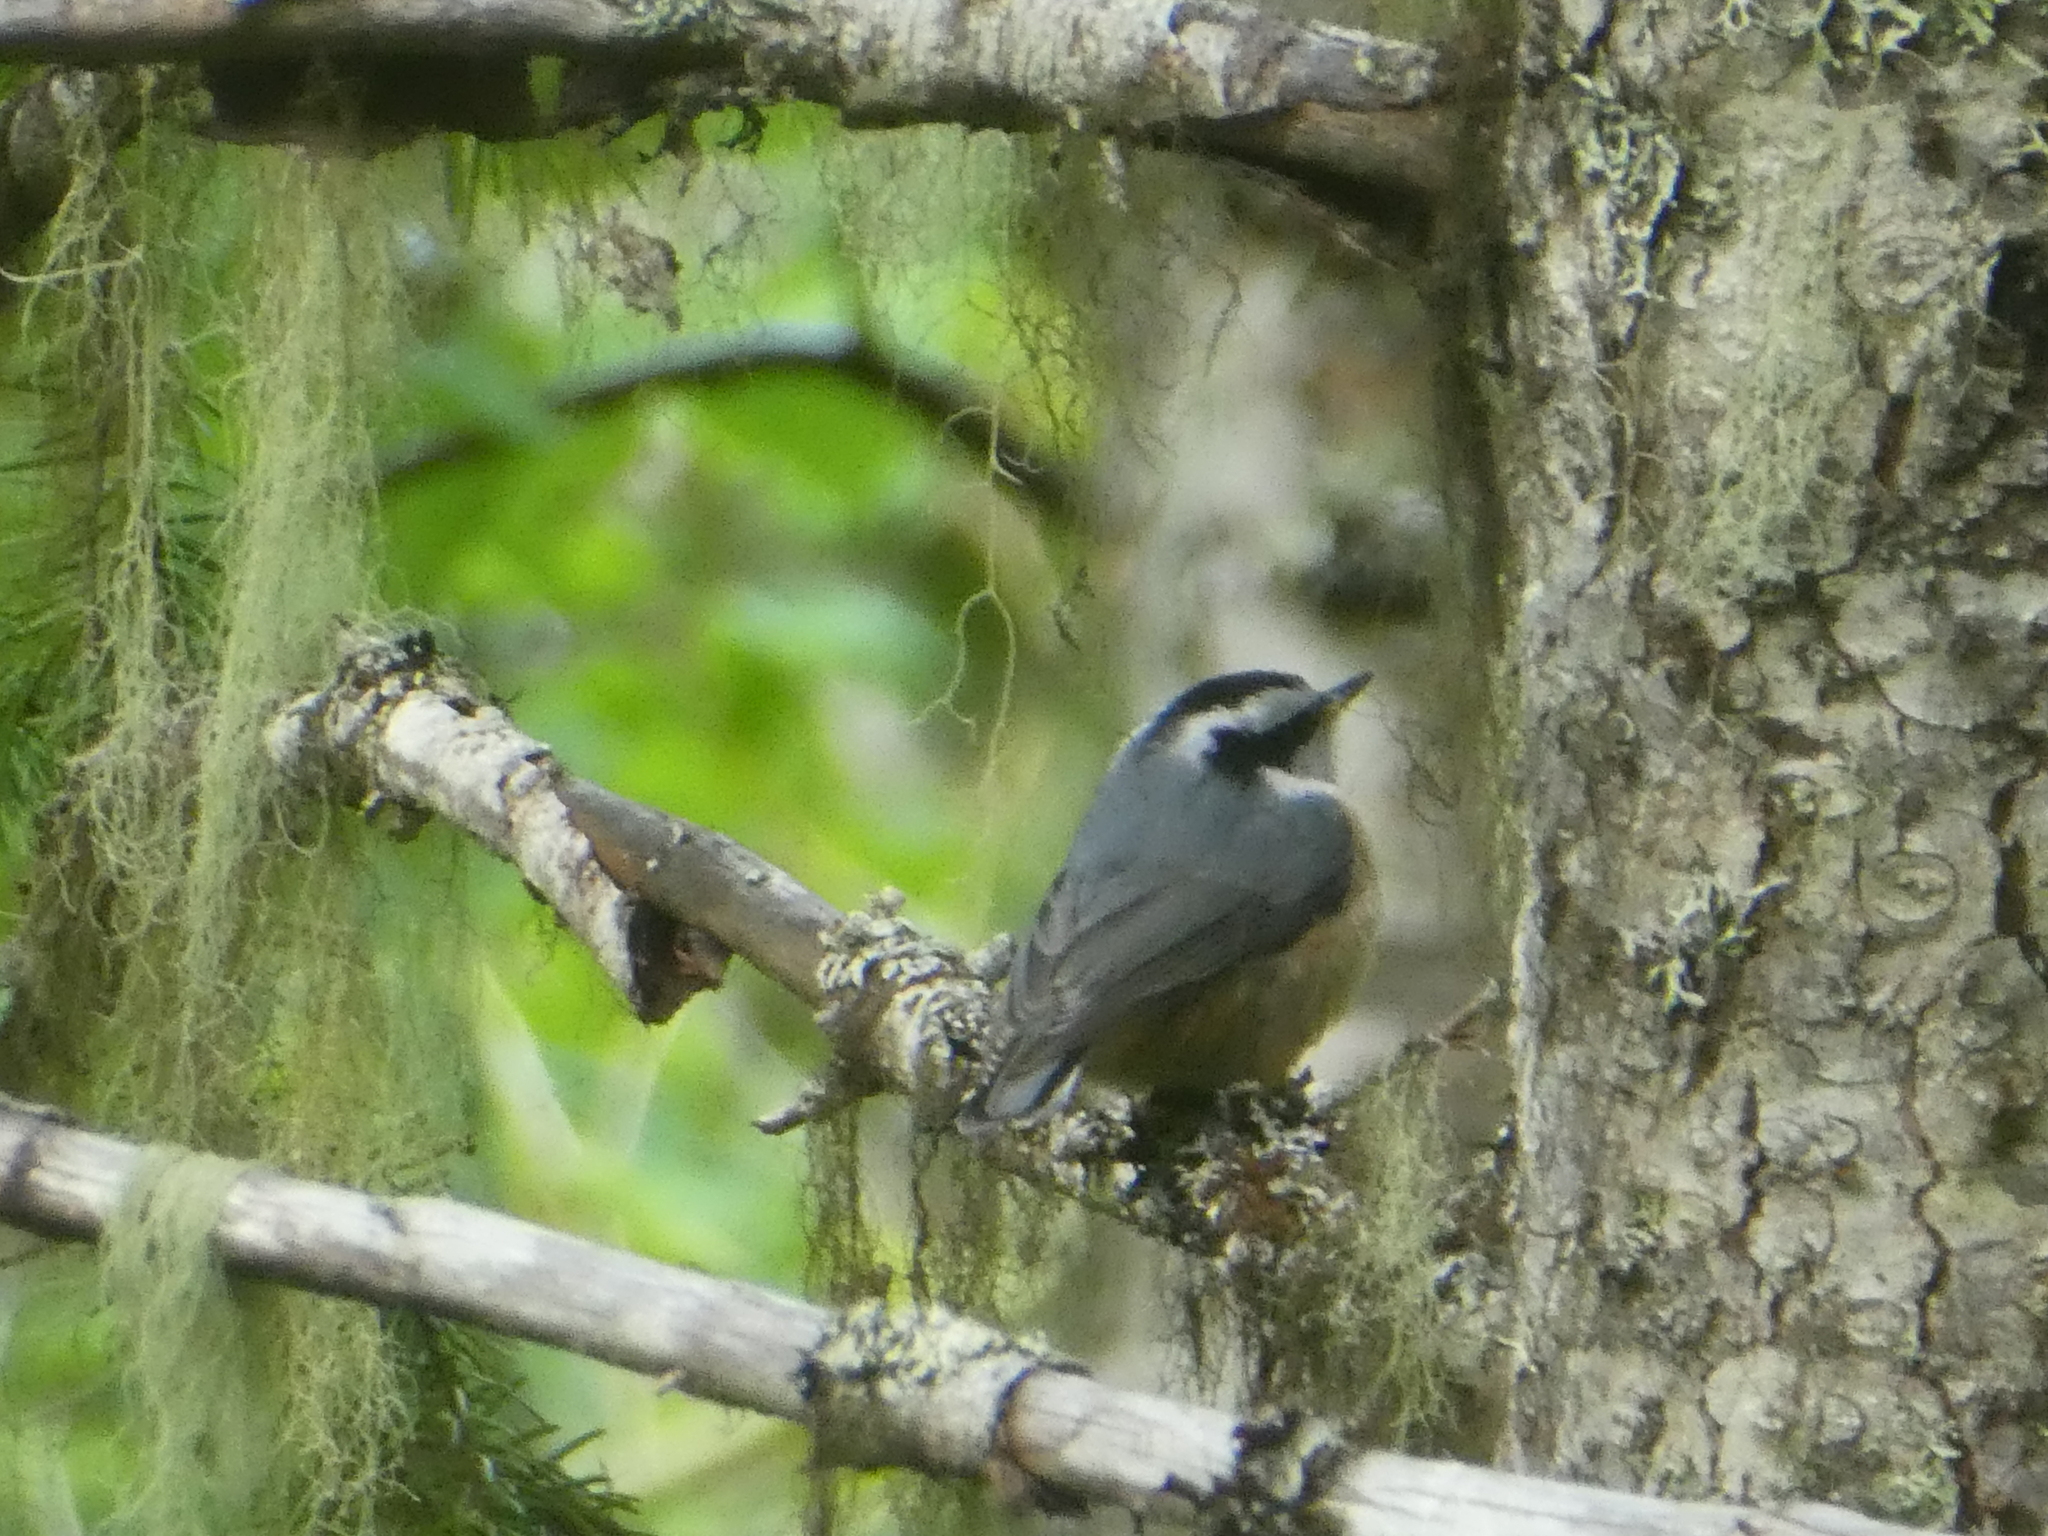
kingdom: Animalia
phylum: Chordata
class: Aves
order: Passeriformes
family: Sittidae
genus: Sitta
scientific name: Sitta canadensis
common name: Red-breasted nuthatch
